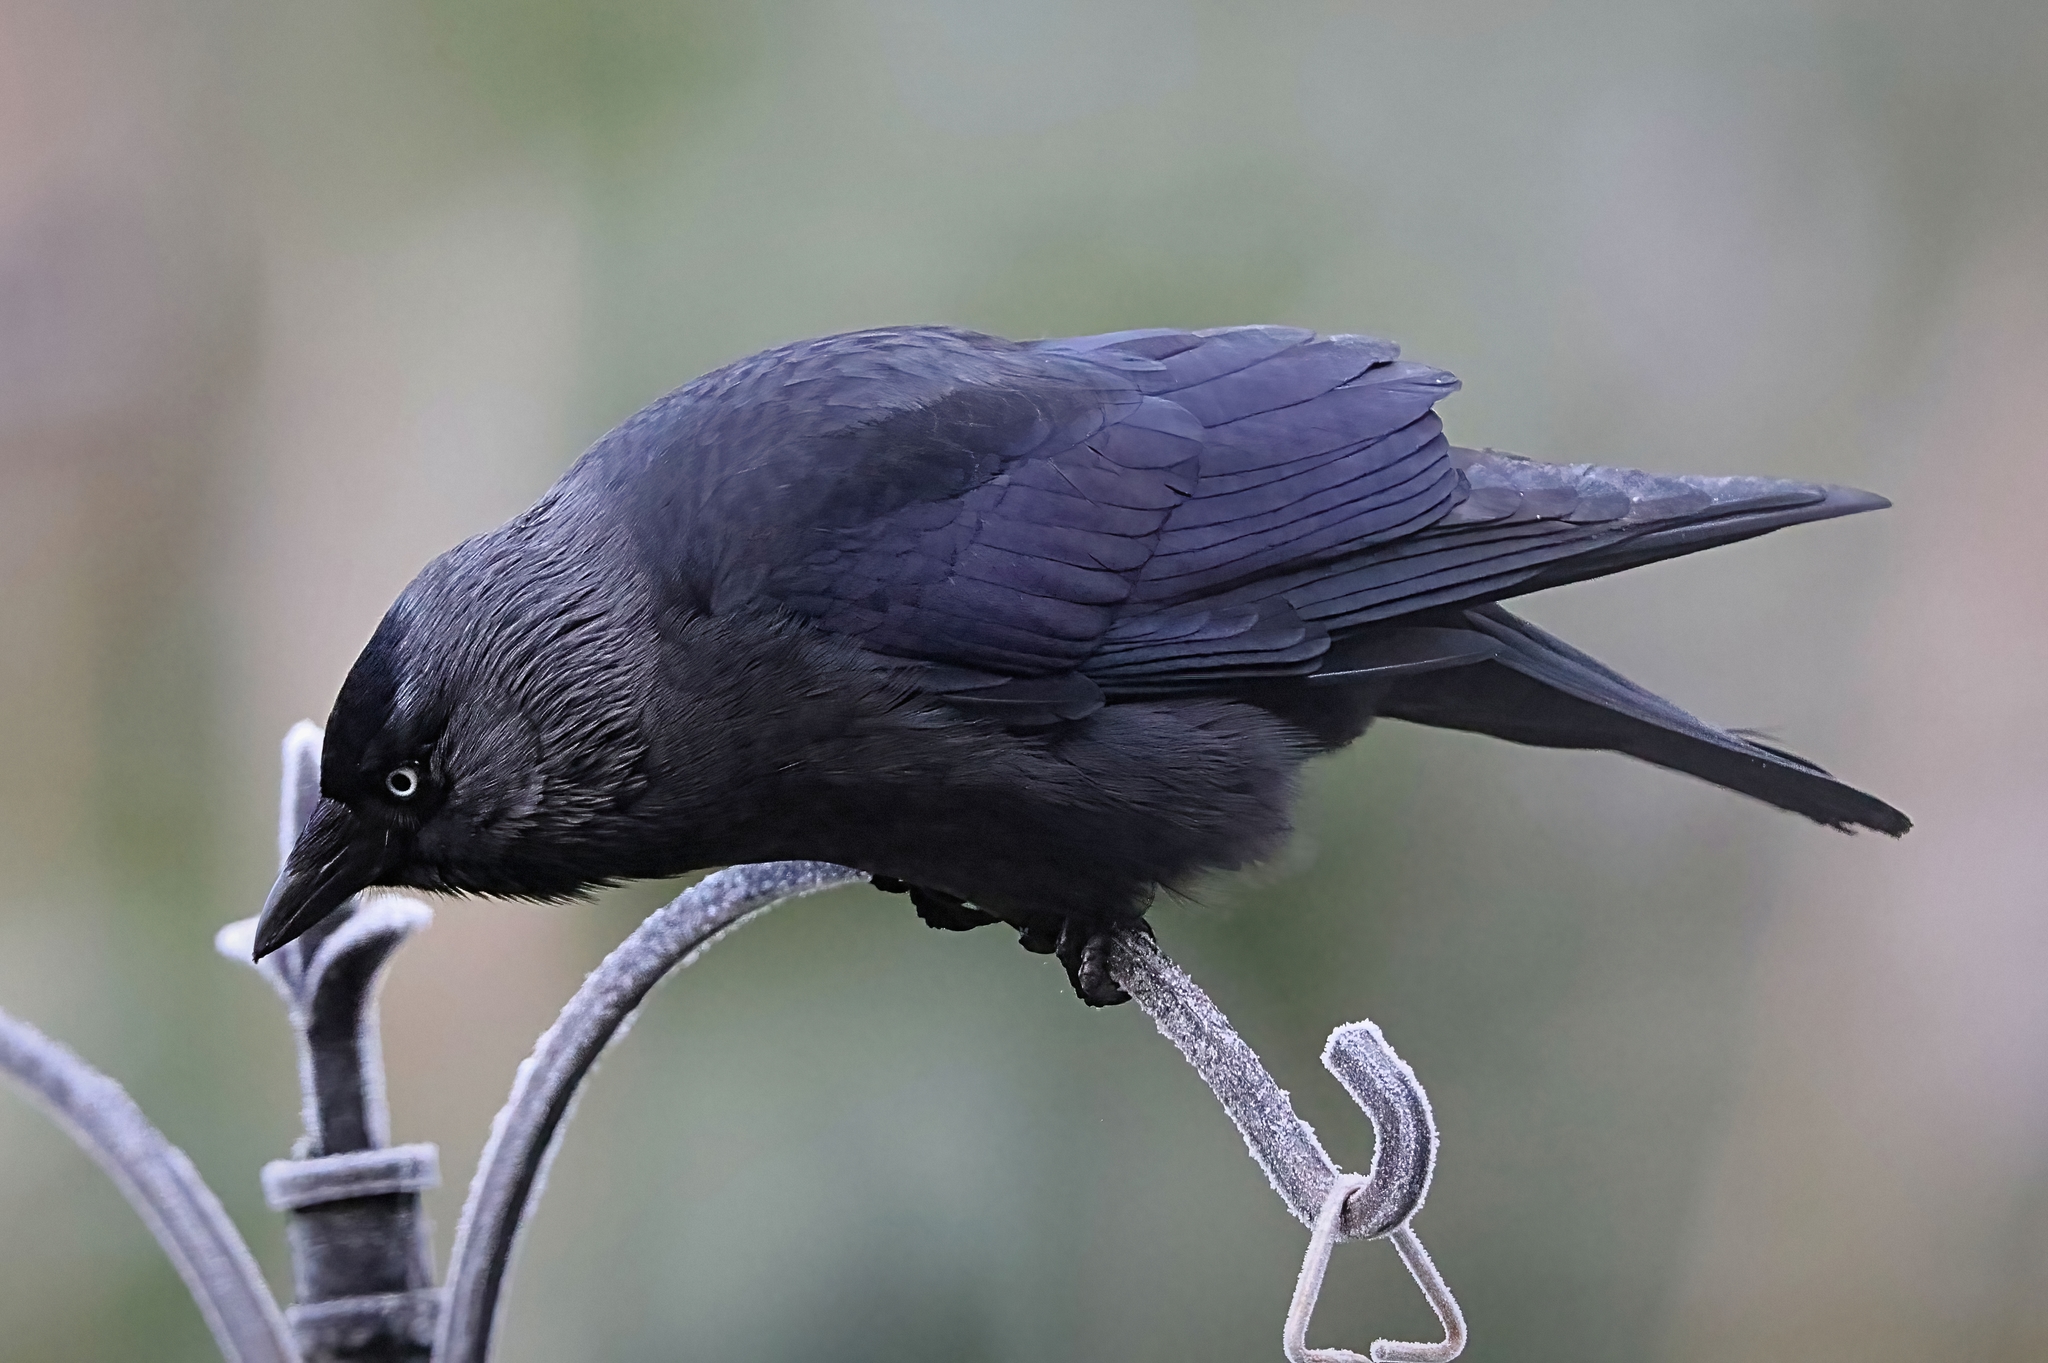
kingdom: Animalia
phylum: Chordata
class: Aves
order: Passeriformes
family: Corvidae
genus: Coloeus
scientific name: Coloeus monedula
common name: Western jackdaw
